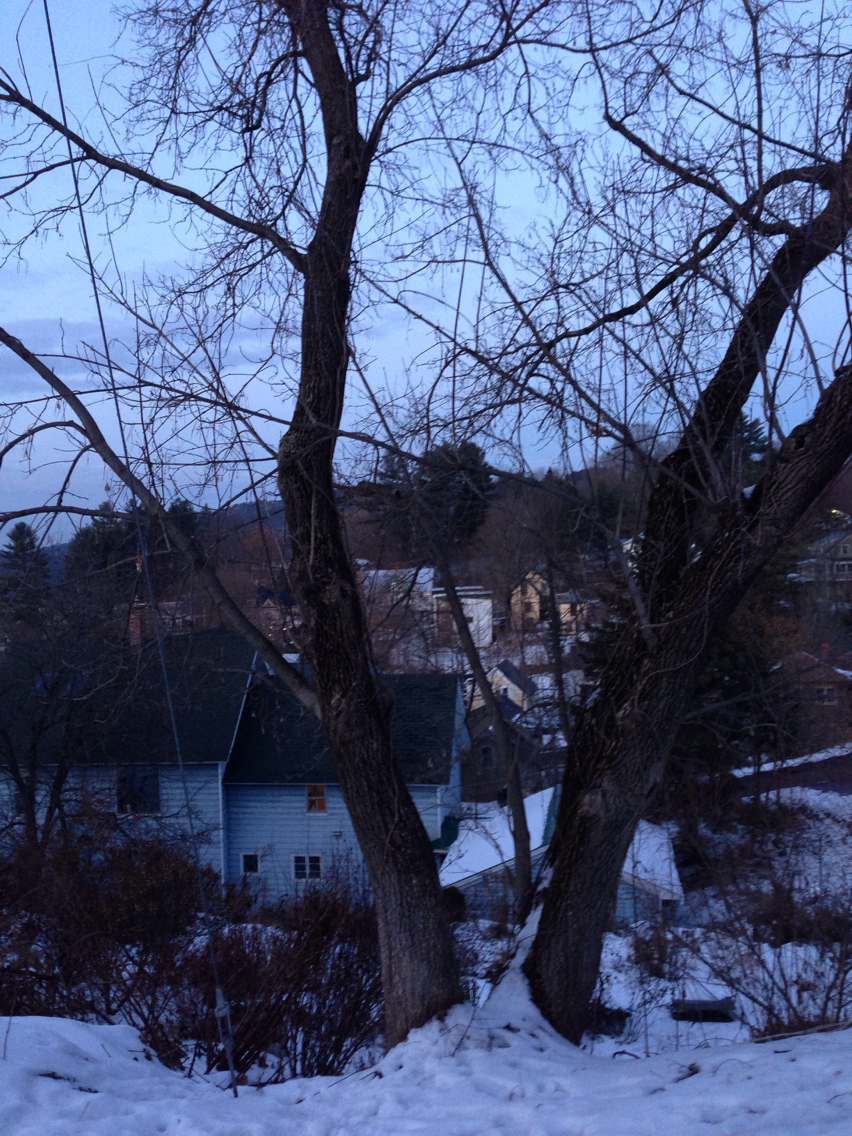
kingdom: Plantae
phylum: Tracheophyta
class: Magnoliopsida
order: Sapindales
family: Sapindaceae
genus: Acer
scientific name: Acer negundo
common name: Ashleaf maple
